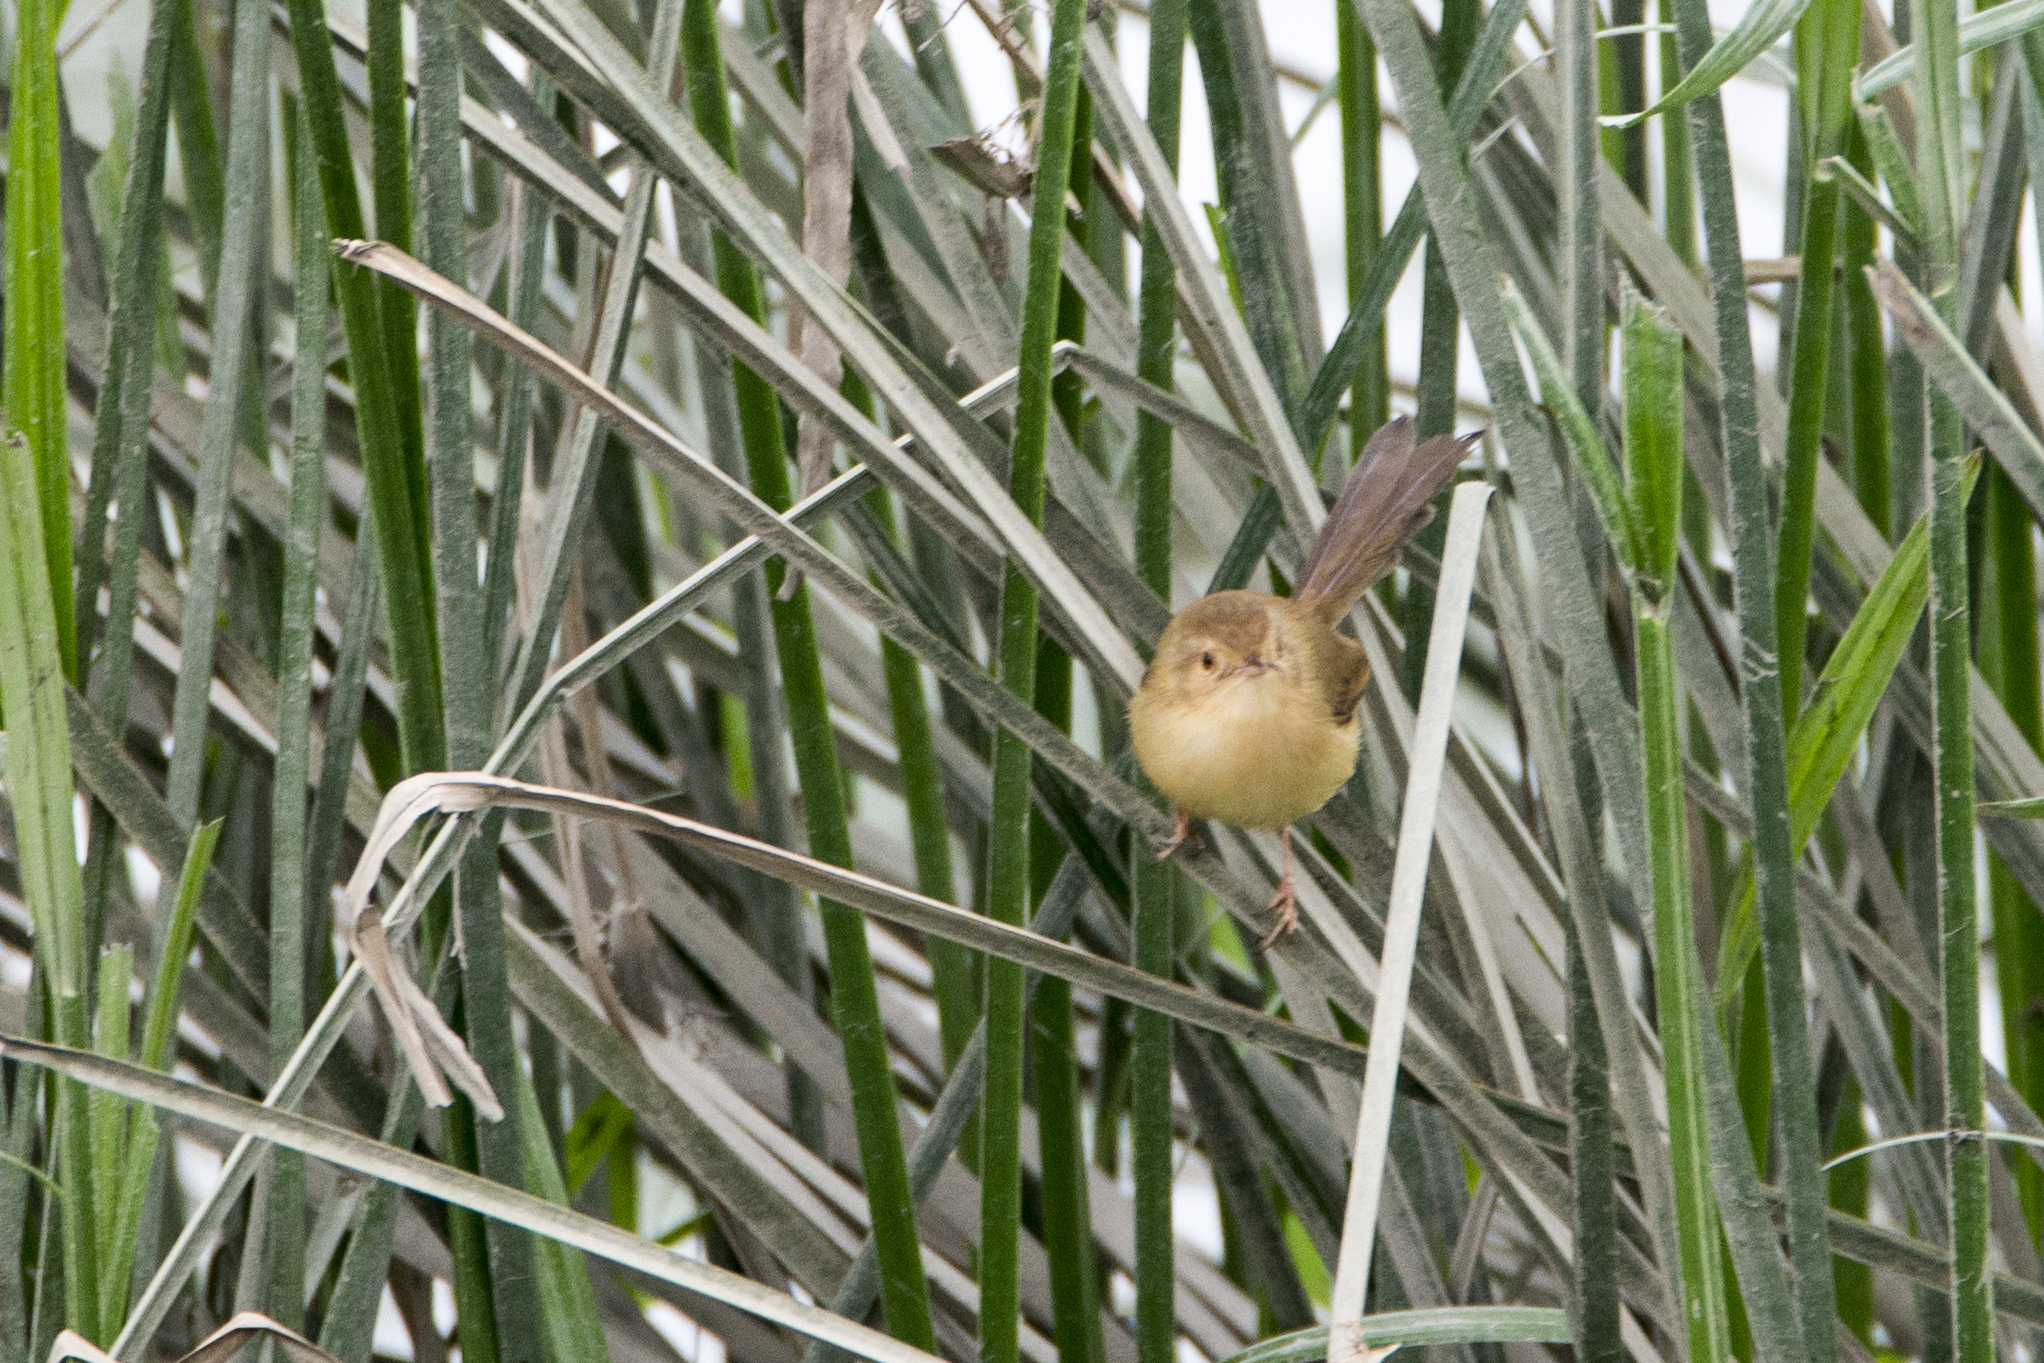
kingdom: Animalia
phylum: Chordata
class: Aves
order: Passeriformes
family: Cisticolidae
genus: Prinia
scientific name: Prinia inornata
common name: Plain prinia
